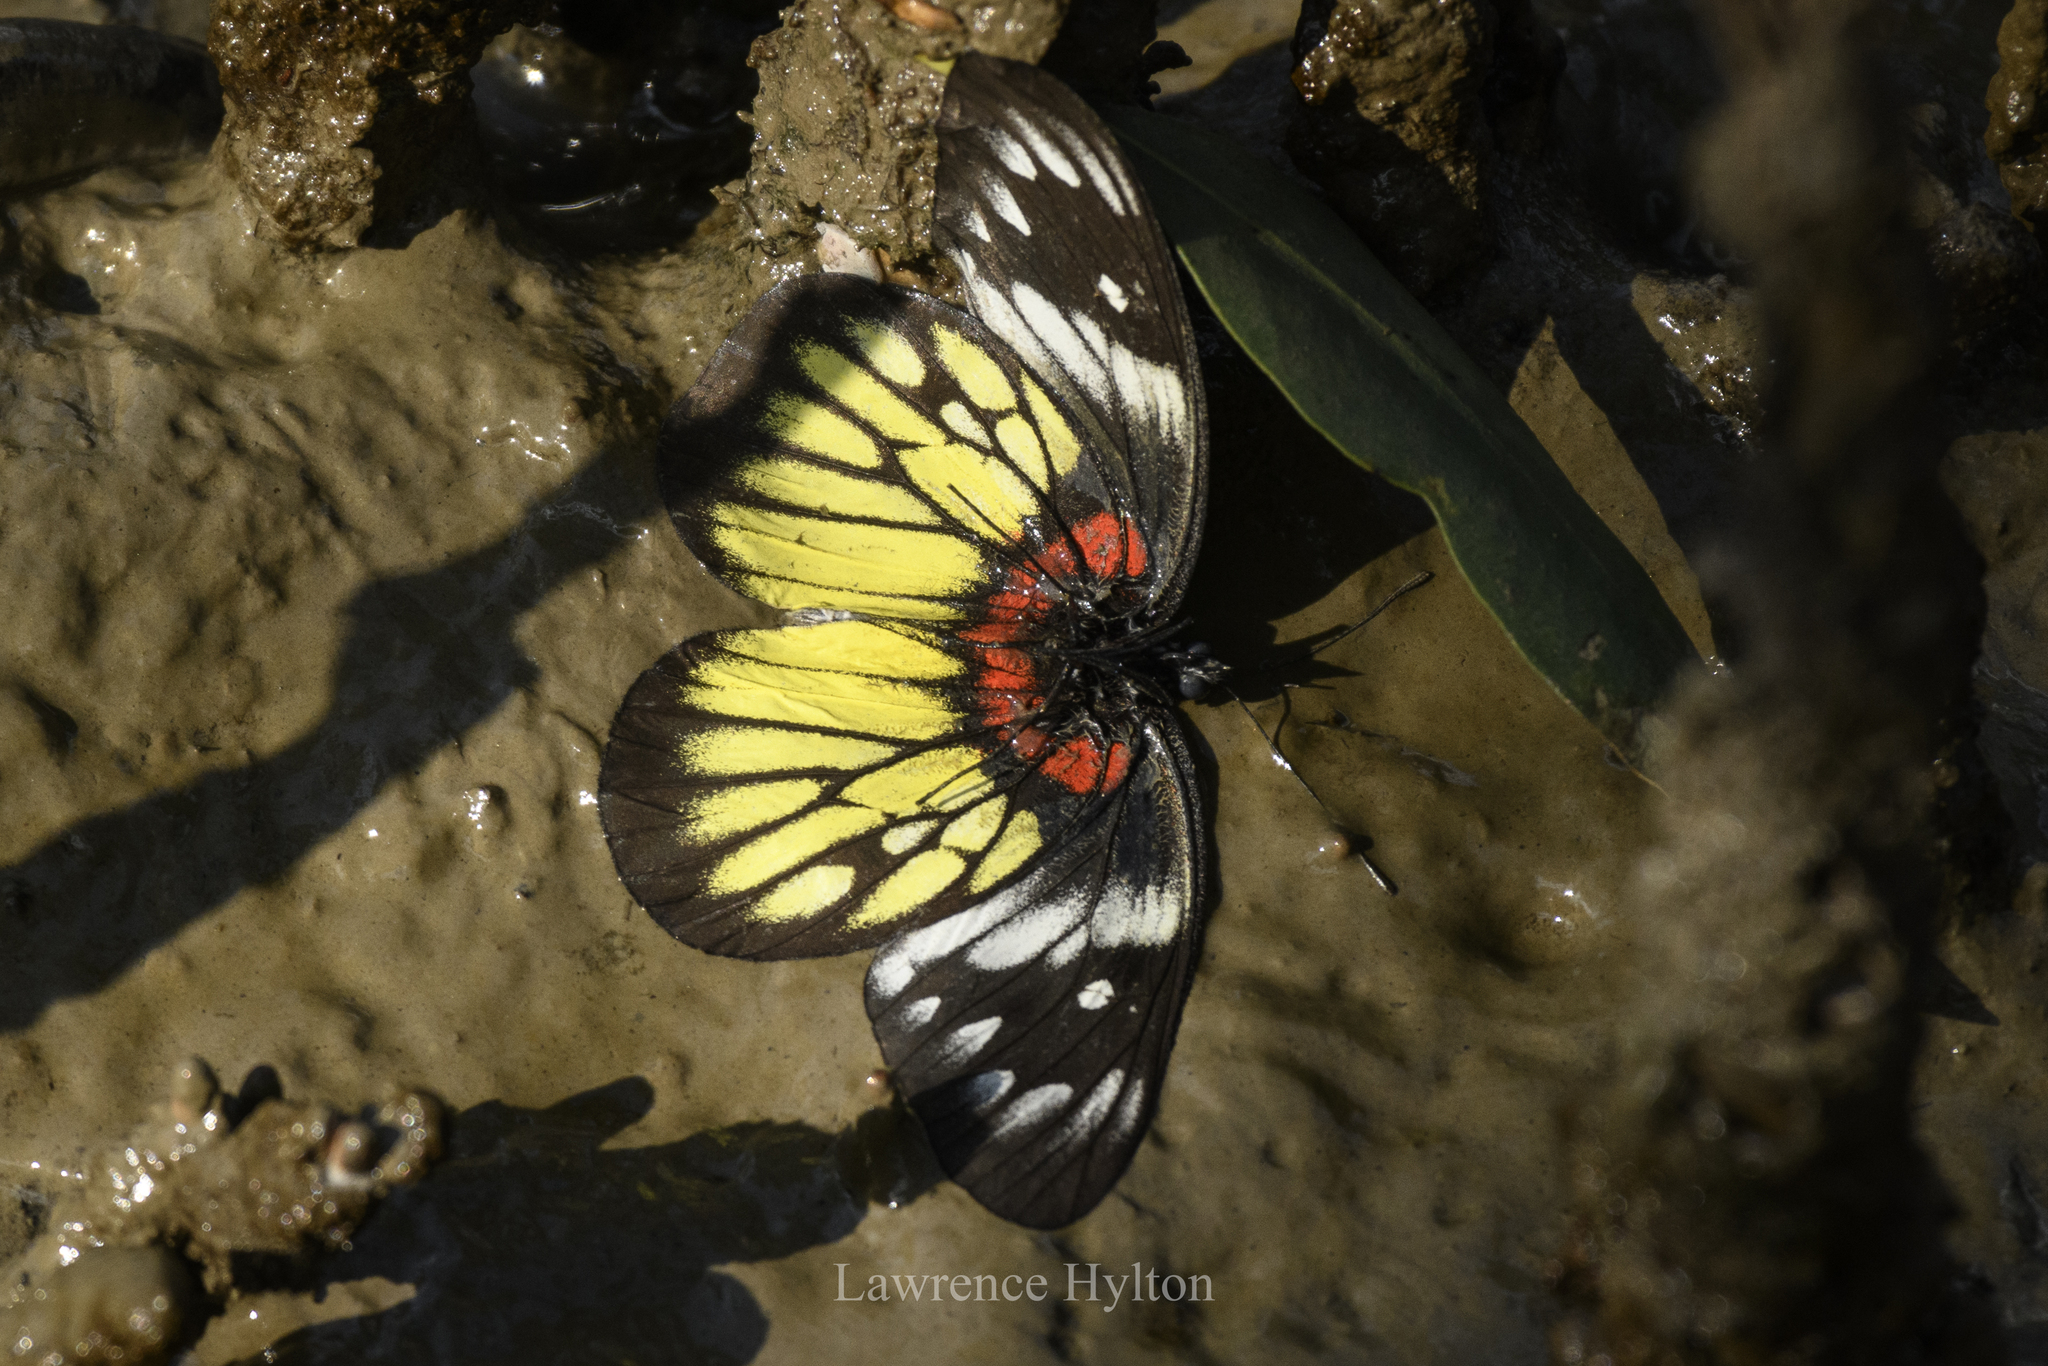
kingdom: Animalia
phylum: Arthropoda
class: Insecta
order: Lepidoptera
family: Pieridae
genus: Delias
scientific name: Delias pasithoe
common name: Red-base jezebel
